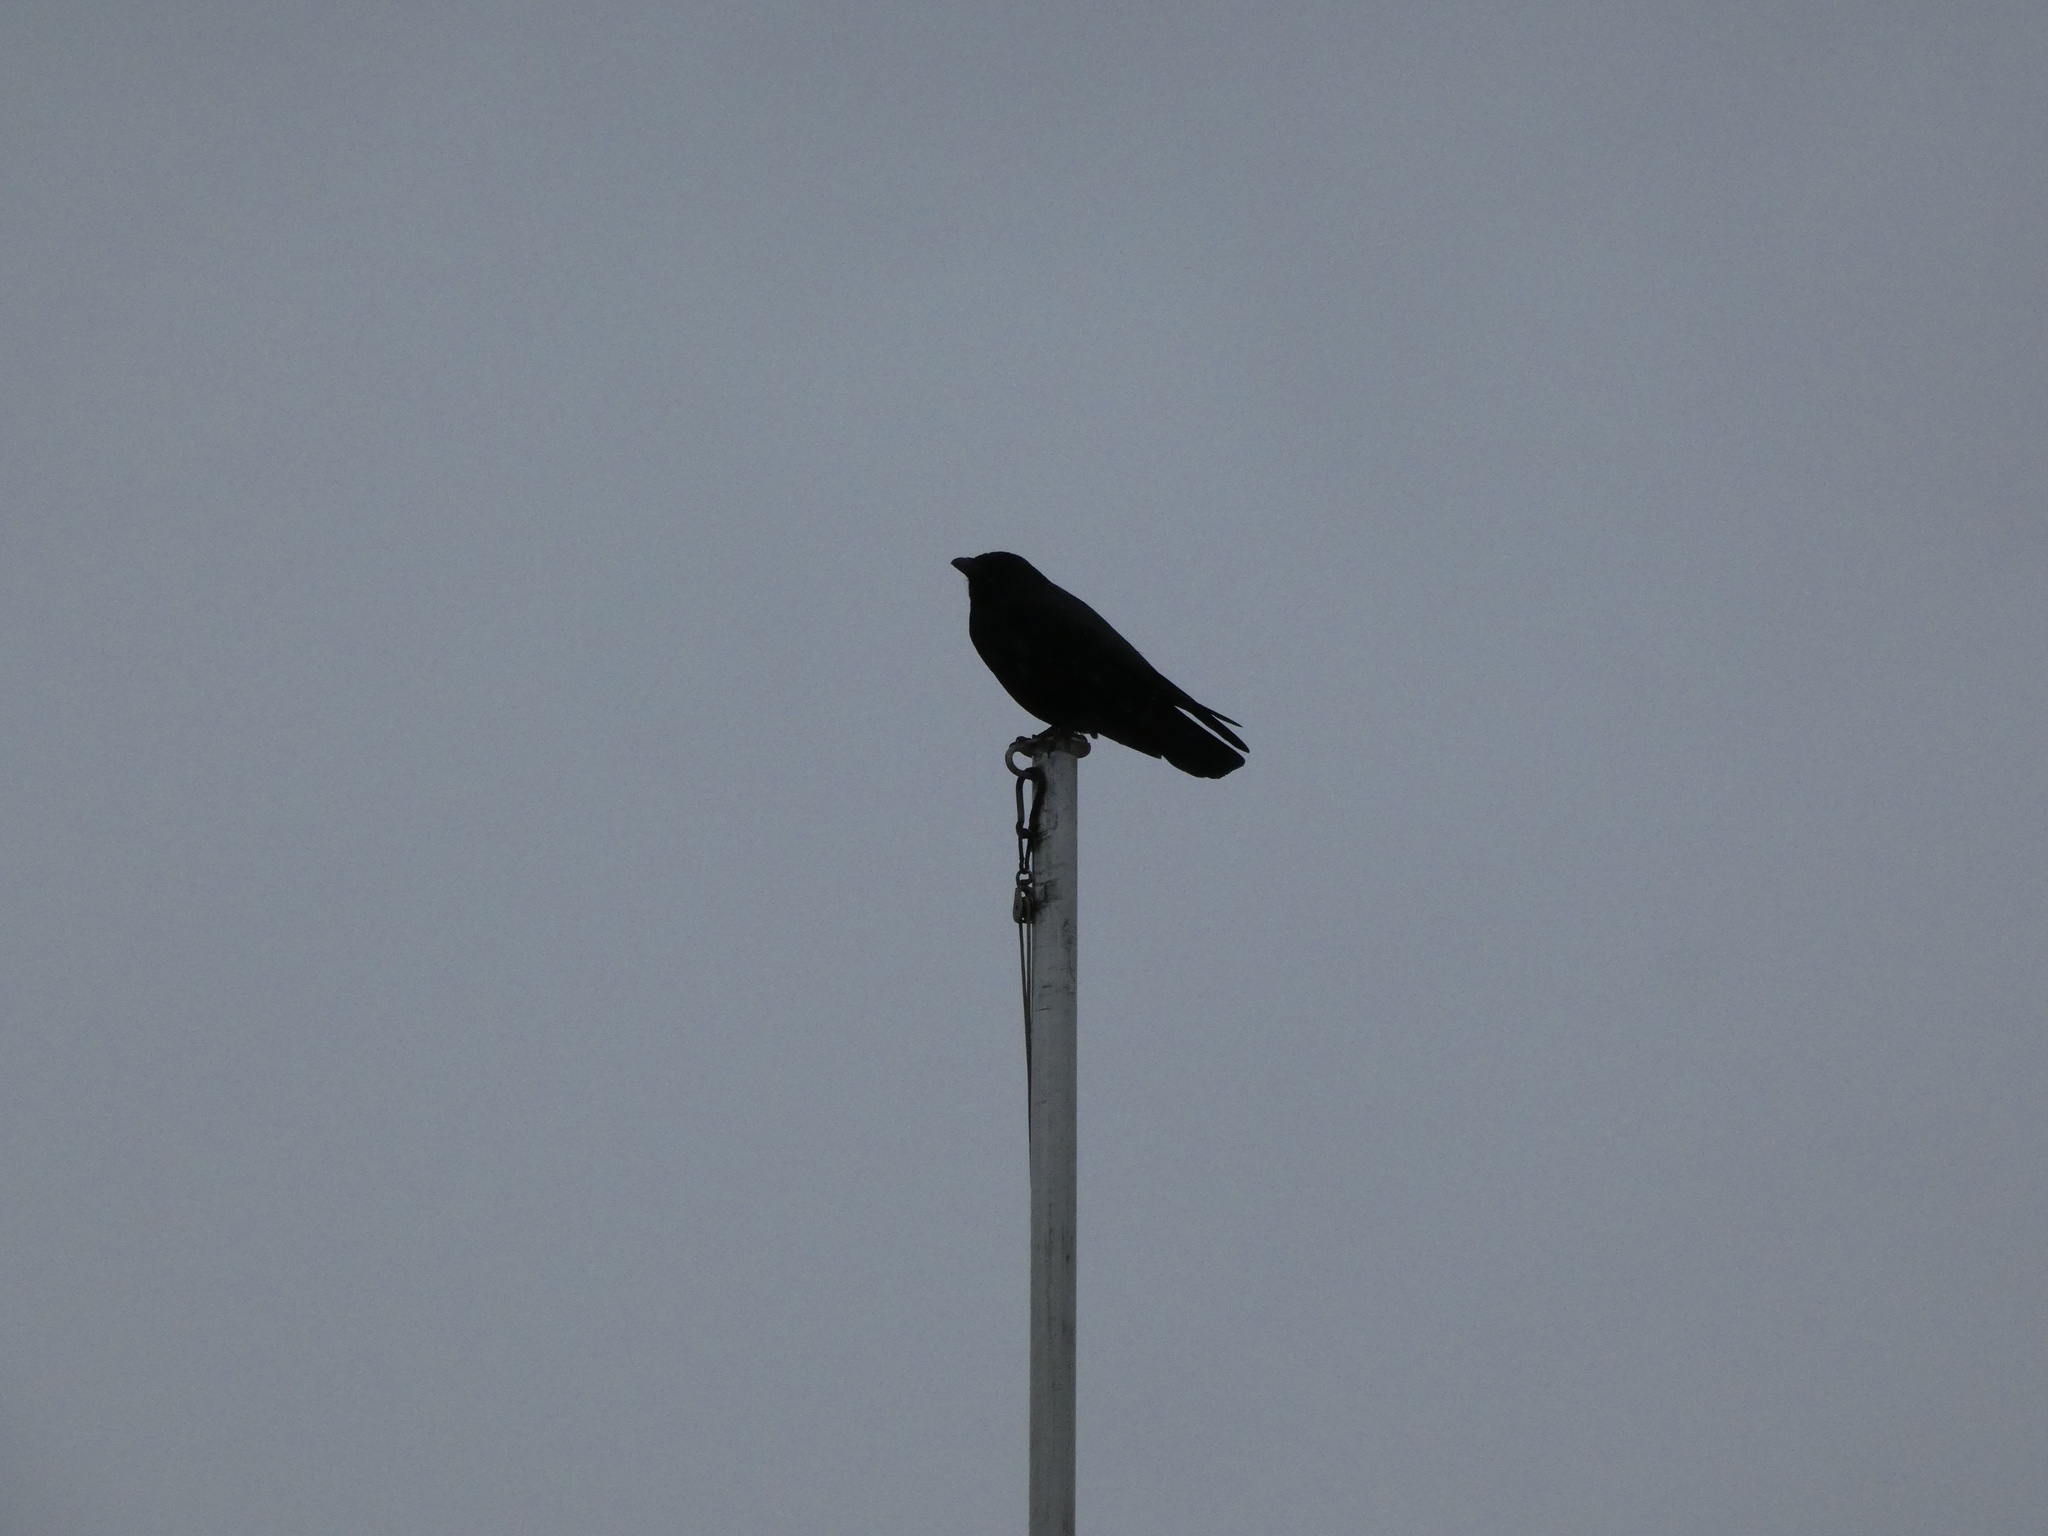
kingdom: Animalia
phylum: Chordata
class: Aves
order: Passeriformes
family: Corvidae
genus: Corvus
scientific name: Corvus corone
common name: Carrion crow
